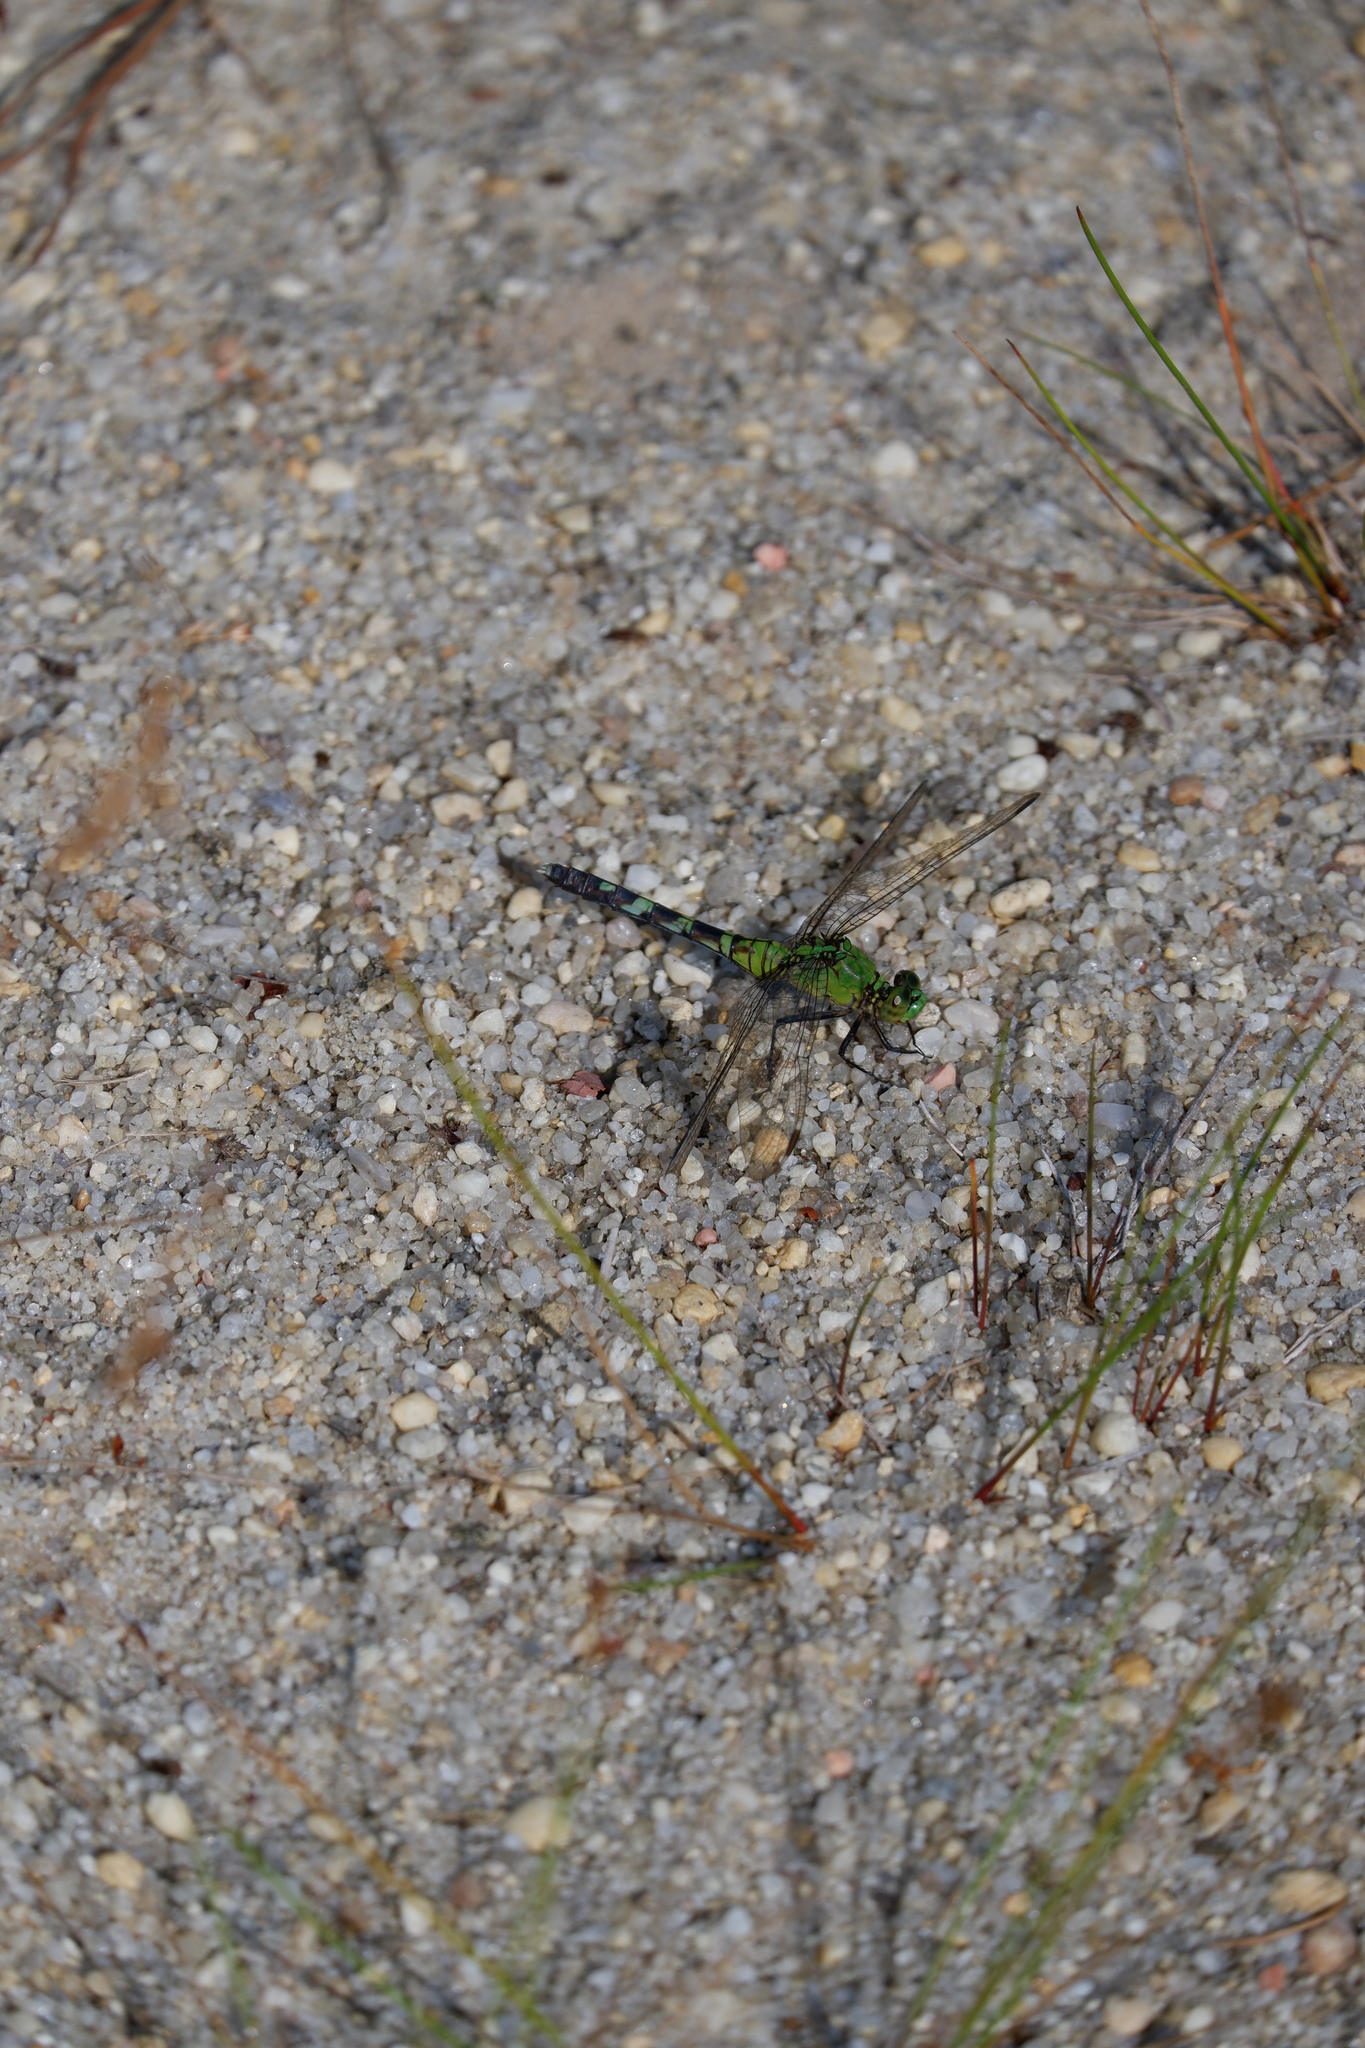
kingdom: Animalia
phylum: Arthropoda
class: Insecta
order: Odonata
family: Libellulidae
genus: Erythemis
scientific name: Erythemis simplicicollis
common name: Eastern pondhawk
